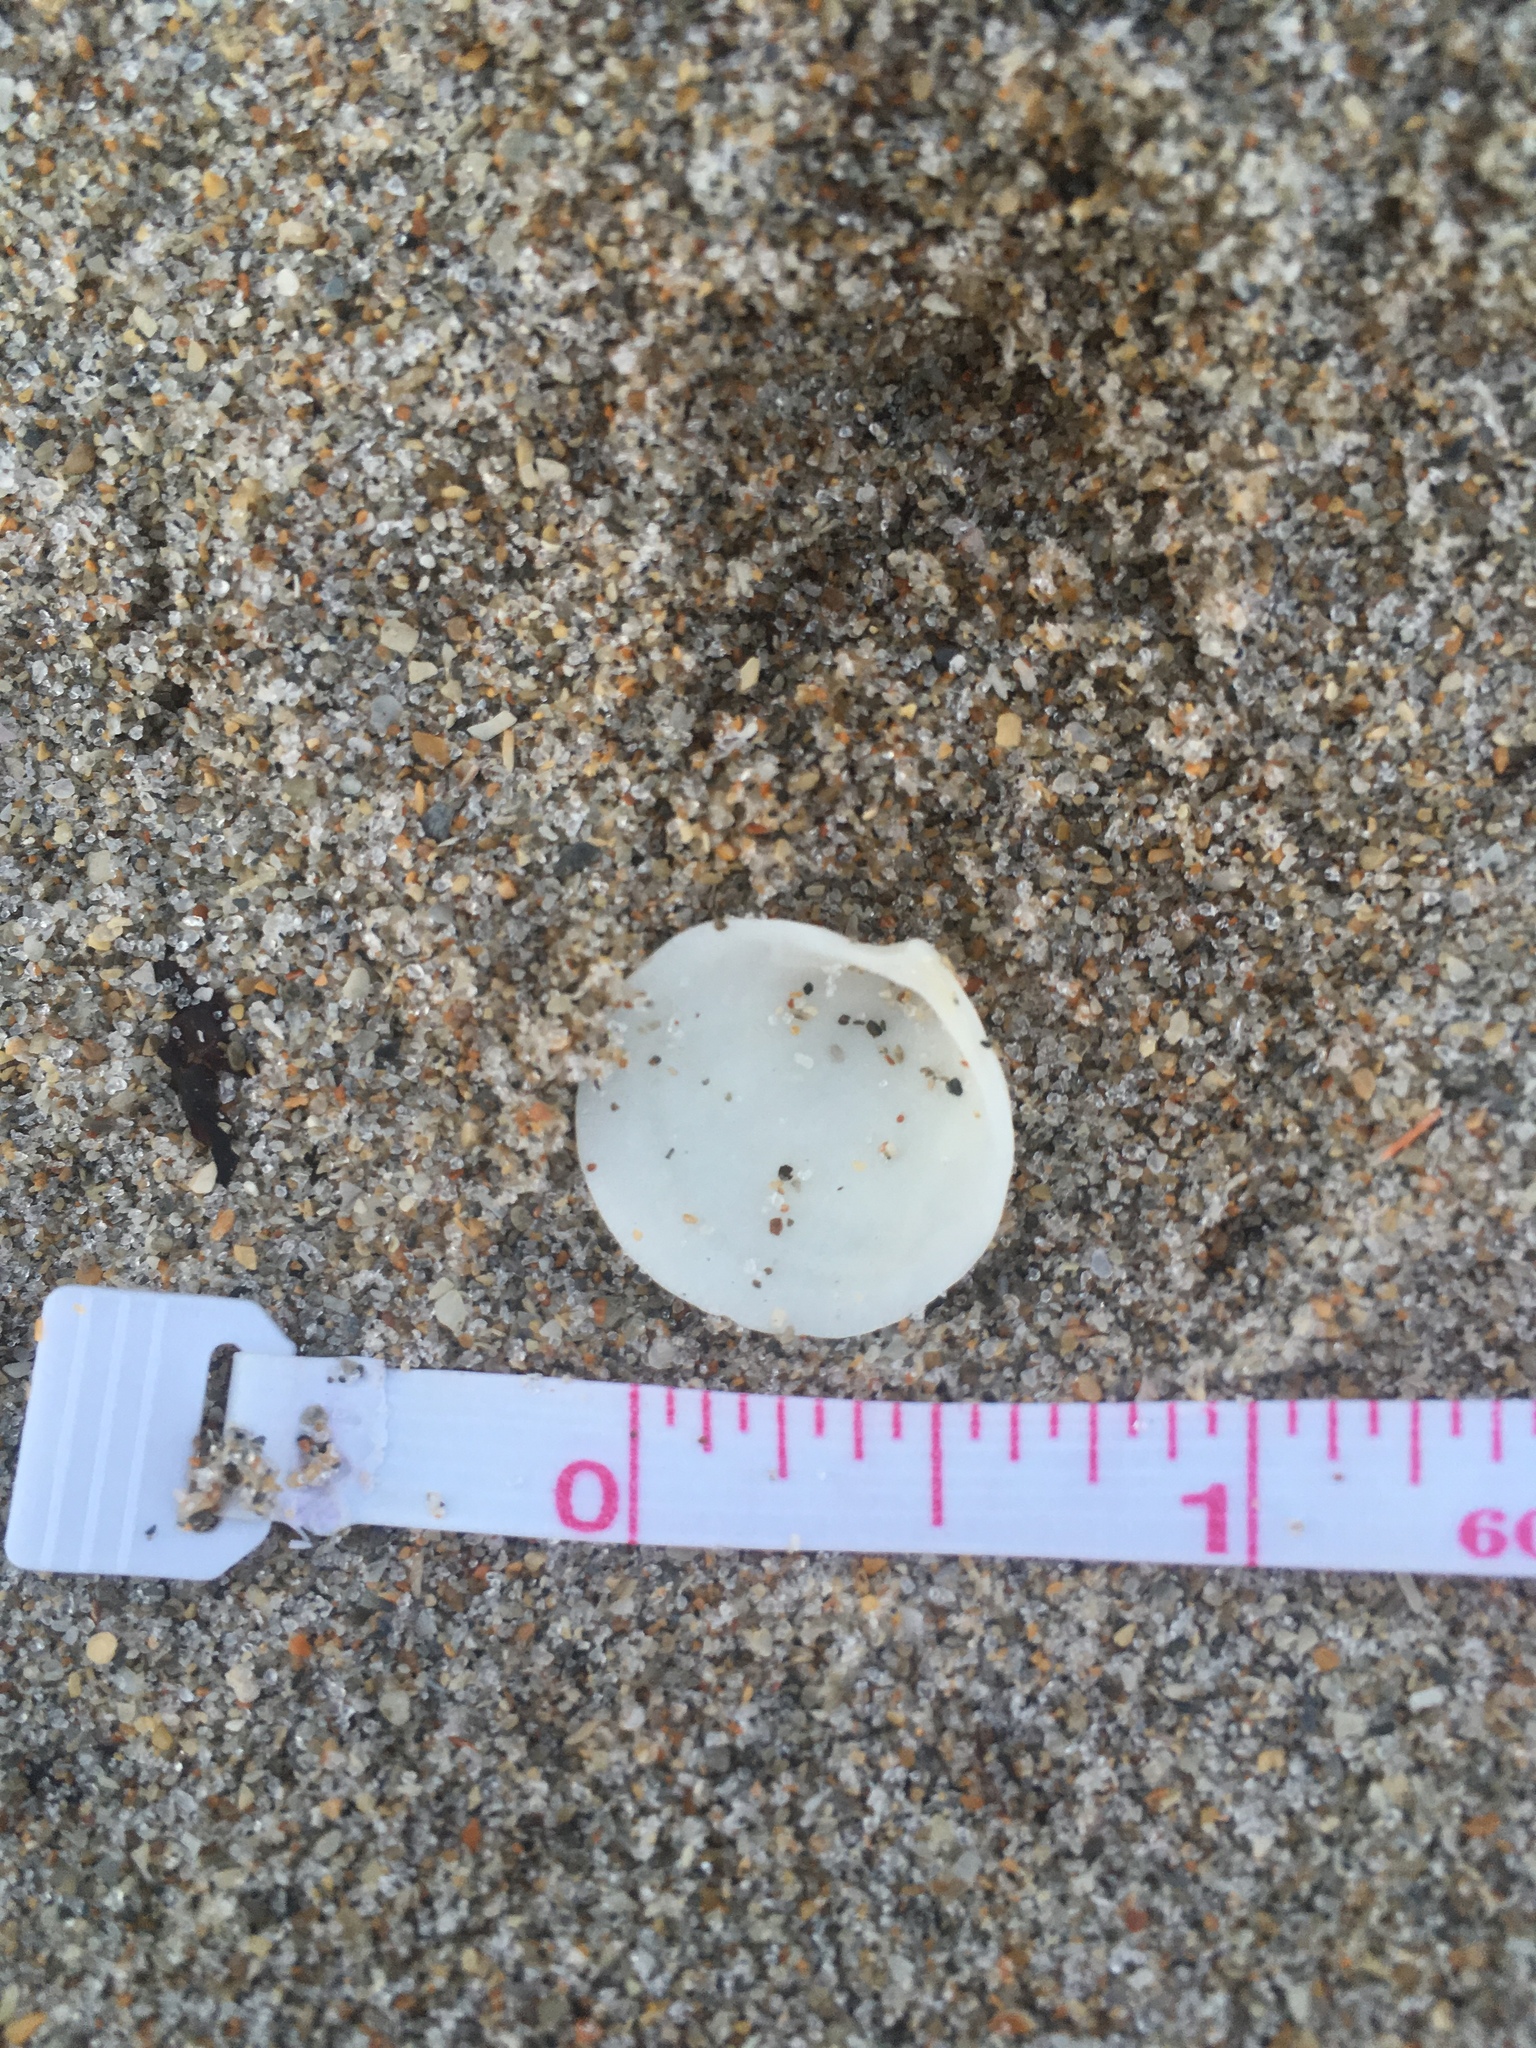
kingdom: Animalia
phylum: Mollusca
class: Bivalvia
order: Lucinida
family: Lucinidae
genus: Callucina
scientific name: Callucina keenae
